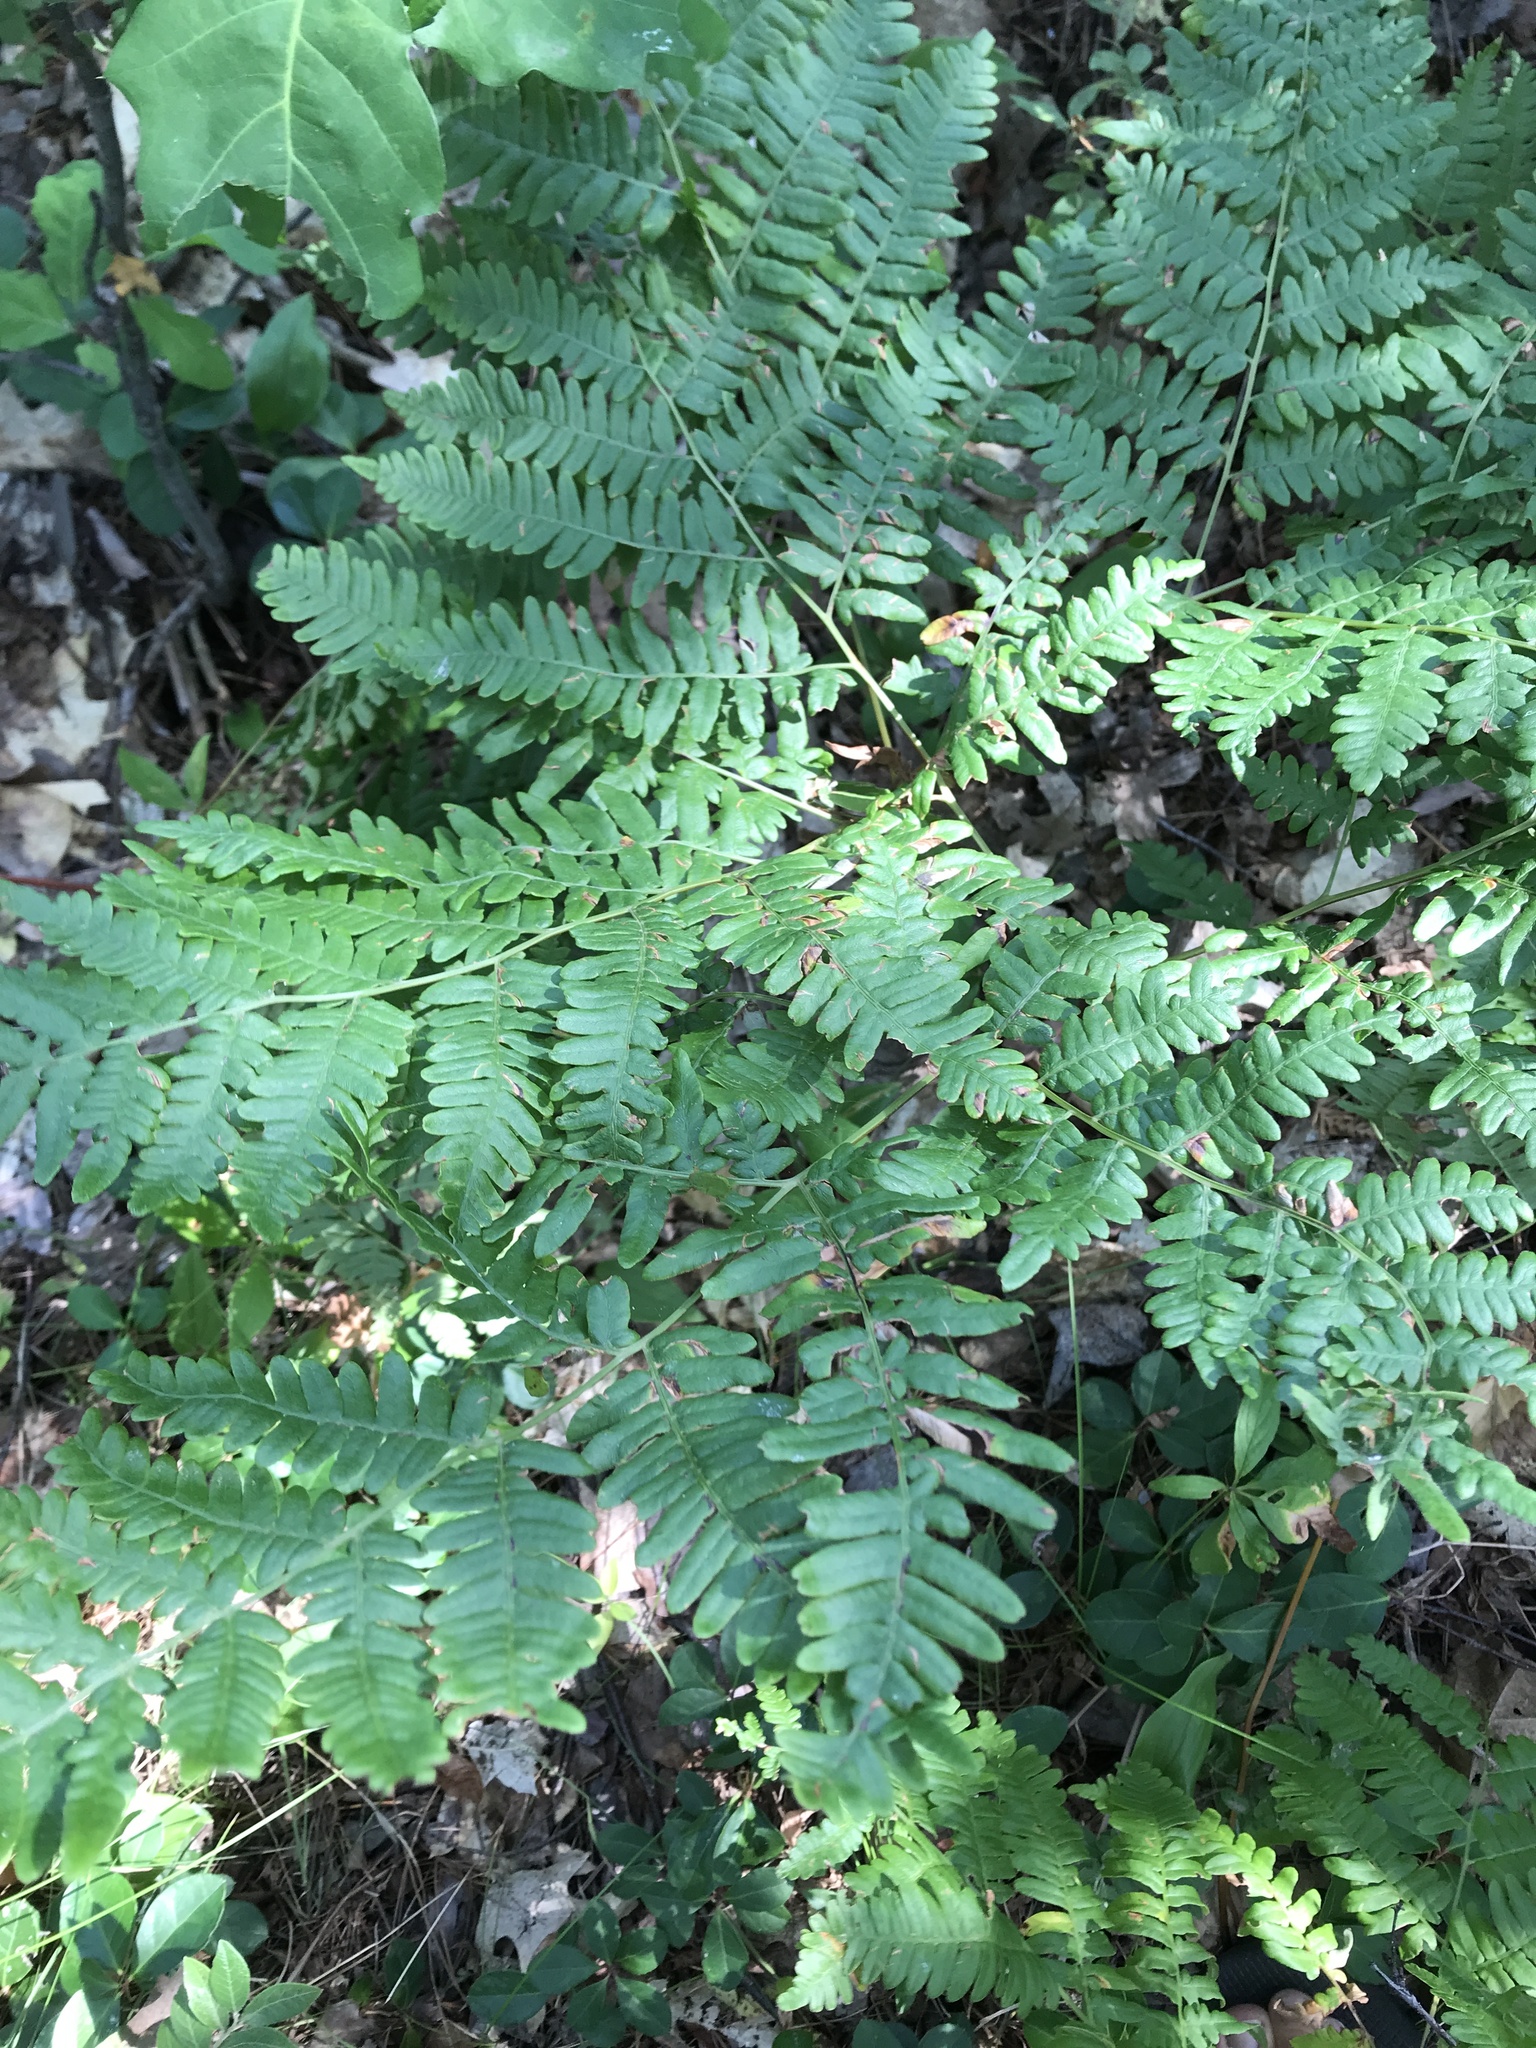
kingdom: Plantae
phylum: Tracheophyta
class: Polypodiopsida
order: Polypodiales
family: Dennstaedtiaceae
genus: Pteridium
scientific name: Pteridium aquilinum
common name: Bracken
